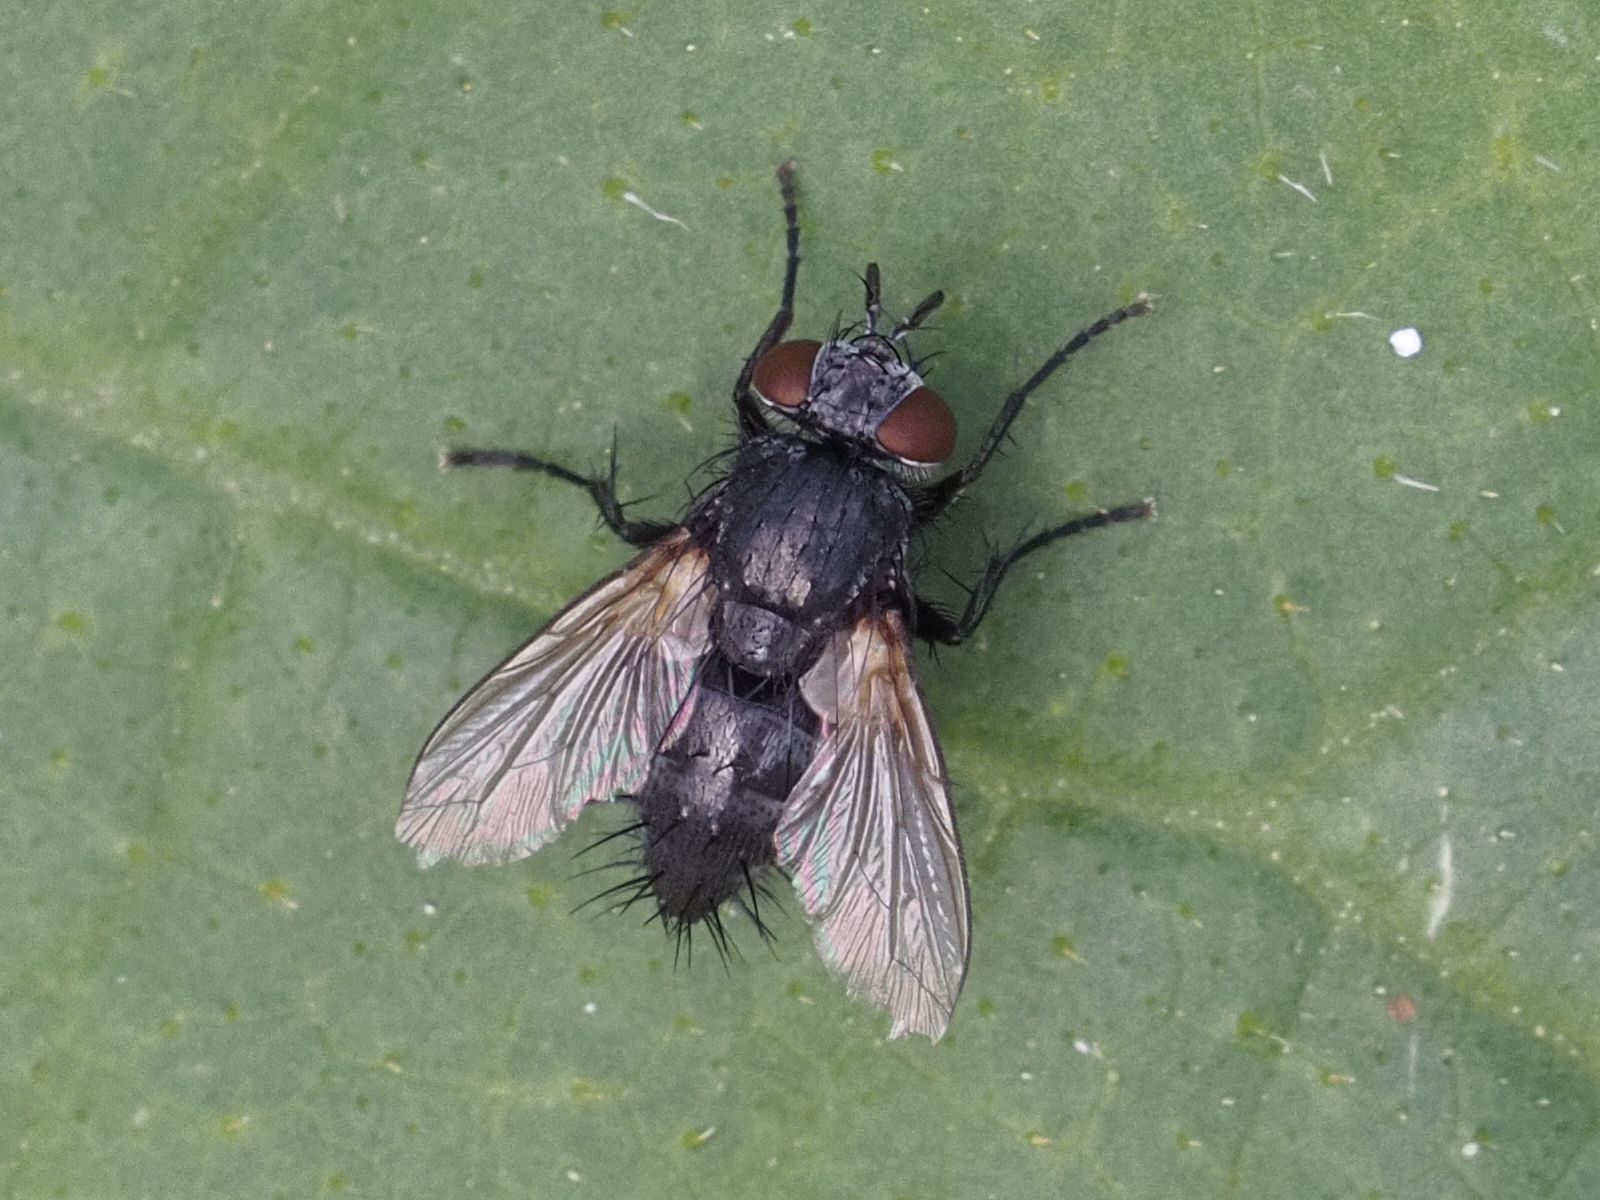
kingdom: Animalia
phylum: Arthropoda
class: Insecta
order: Diptera
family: Tachinidae
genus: Voria
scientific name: Voria ruralis
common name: Parasitic fly
